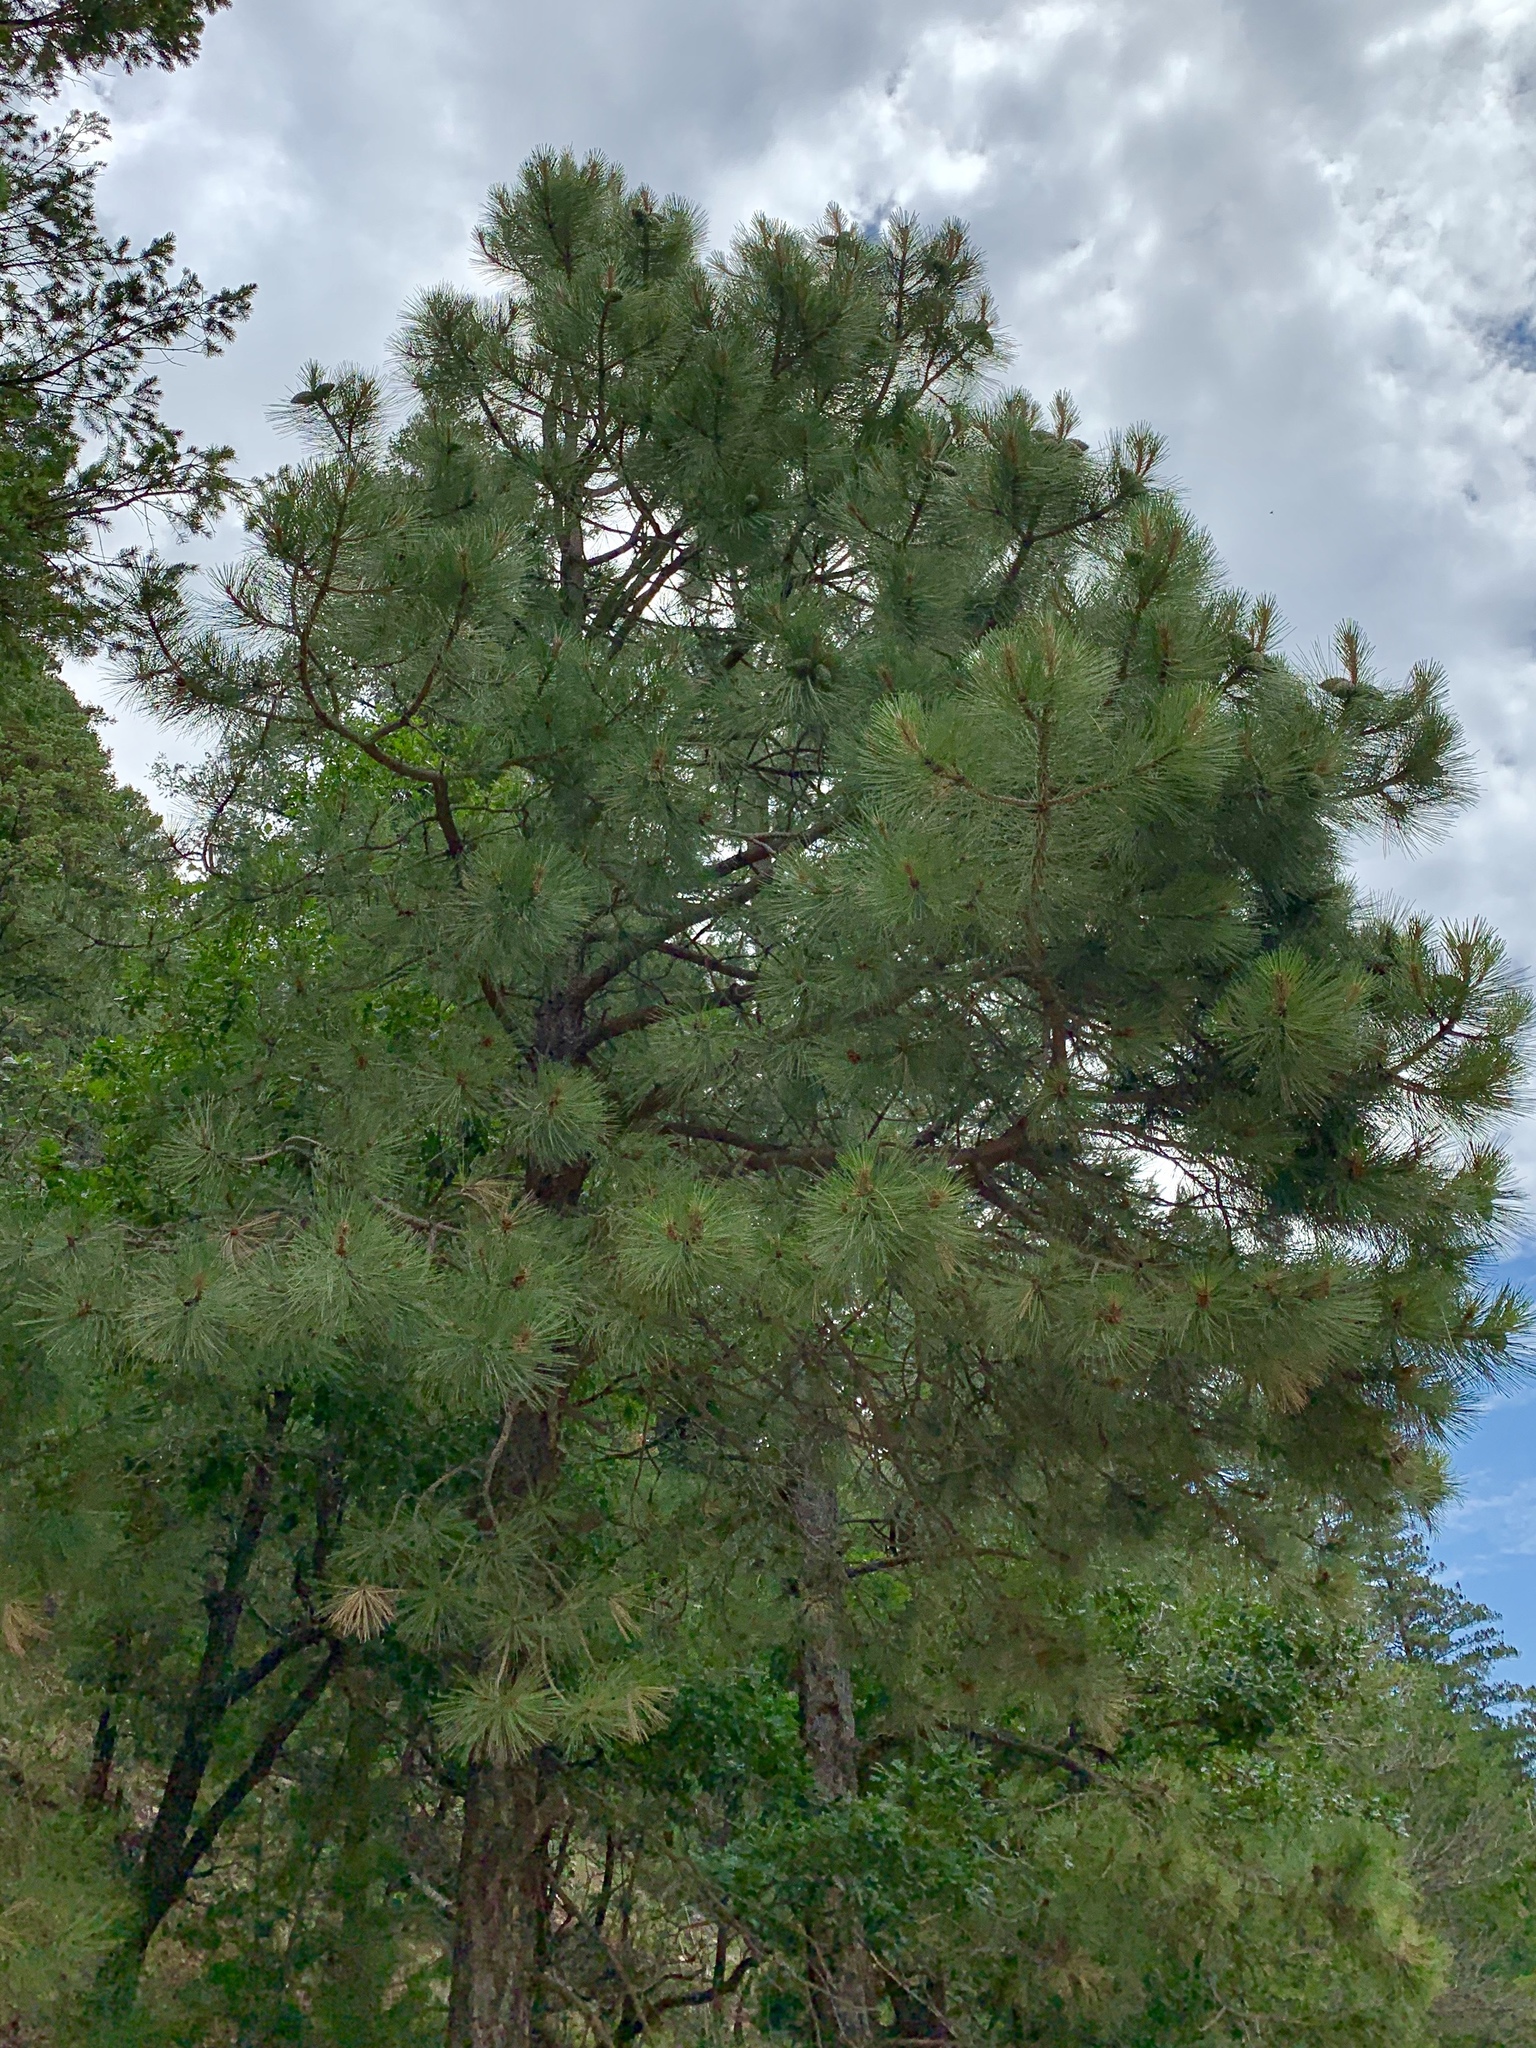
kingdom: Plantae
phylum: Tracheophyta
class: Pinopsida
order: Pinales
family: Pinaceae
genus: Pinus
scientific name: Pinus ponderosa
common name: Western yellow-pine
